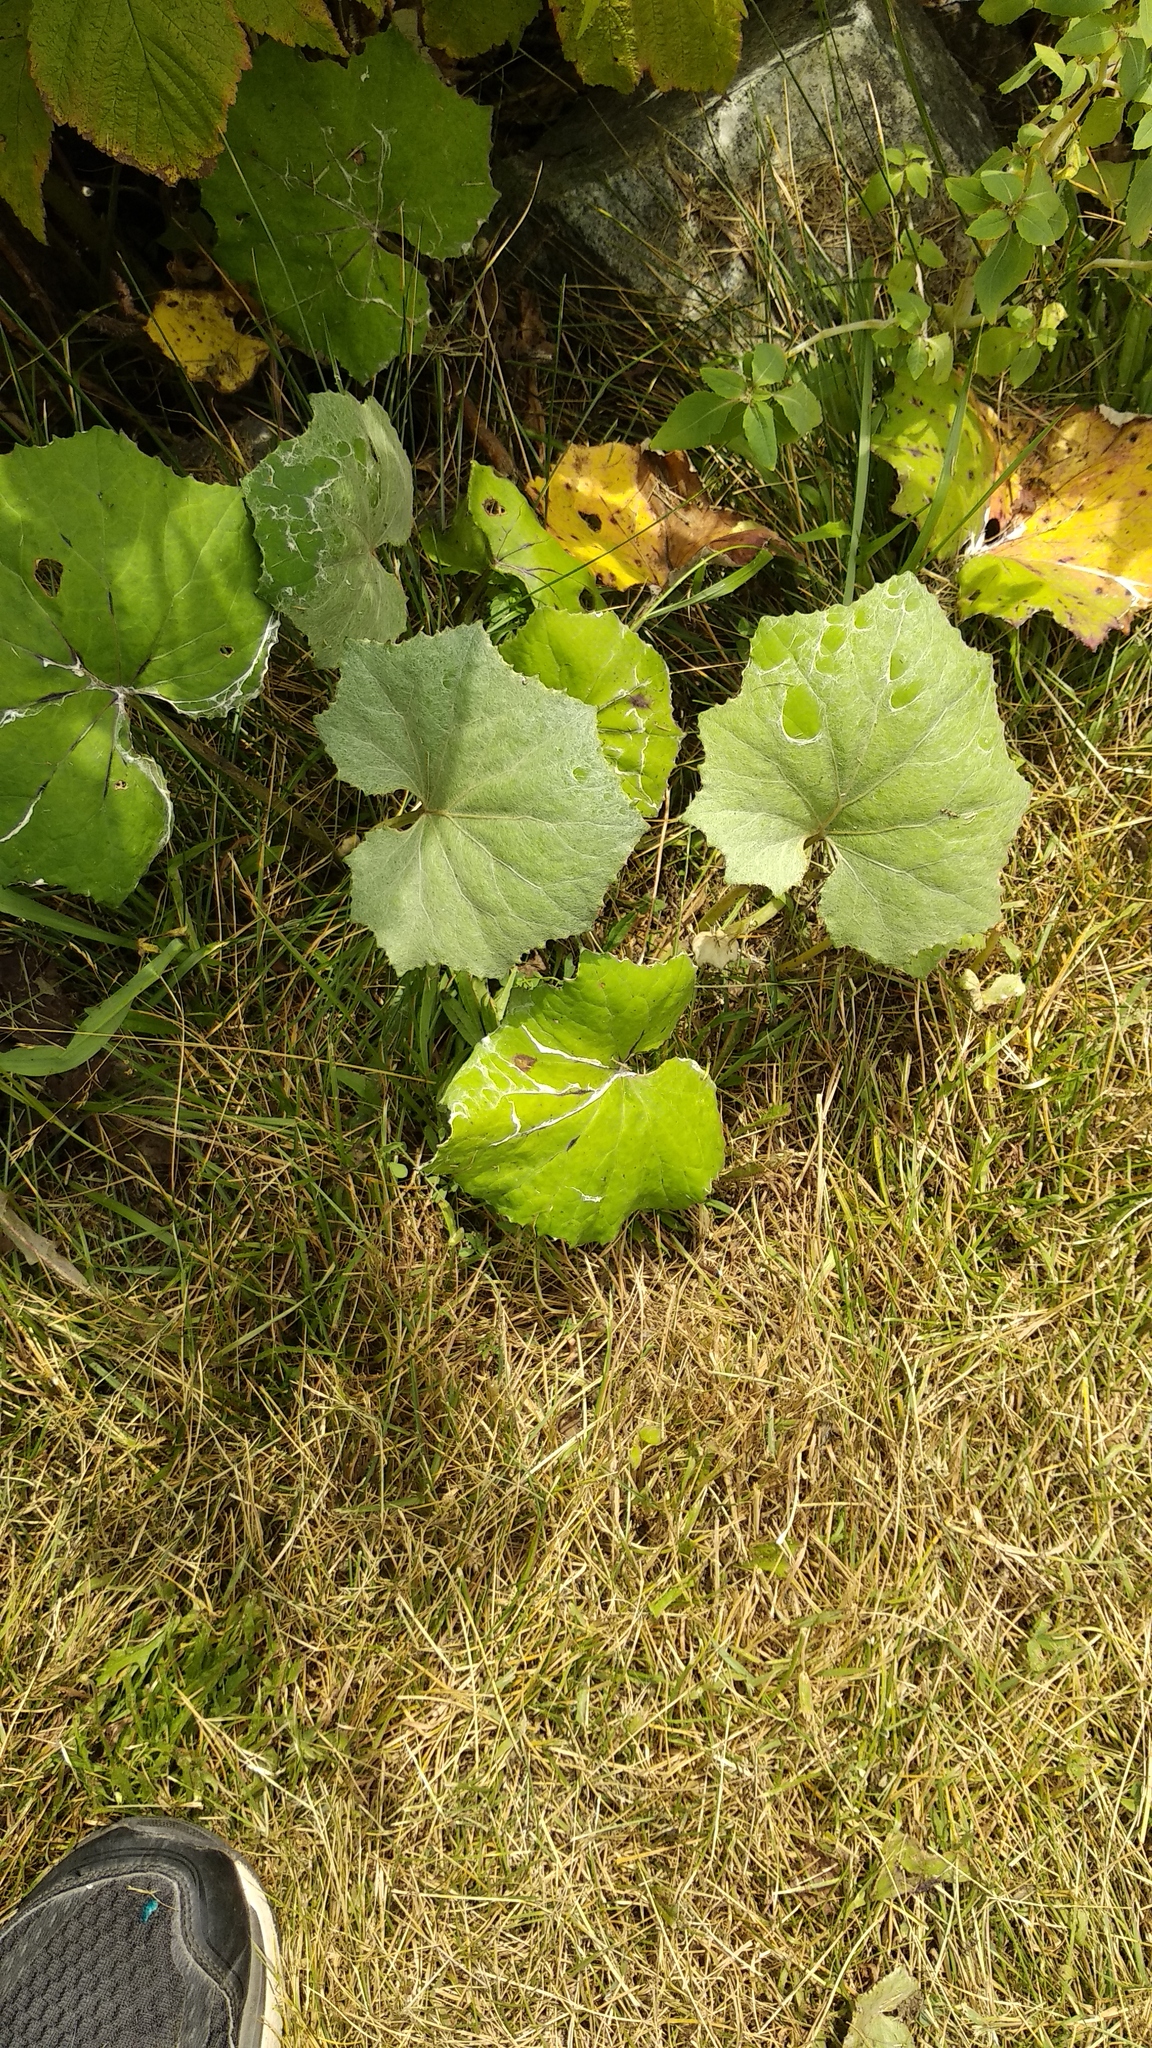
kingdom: Plantae
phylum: Tracheophyta
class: Magnoliopsida
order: Asterales
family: Asteraceae
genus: Tussilago
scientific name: Tussilago farfara
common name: Coltsfoot
